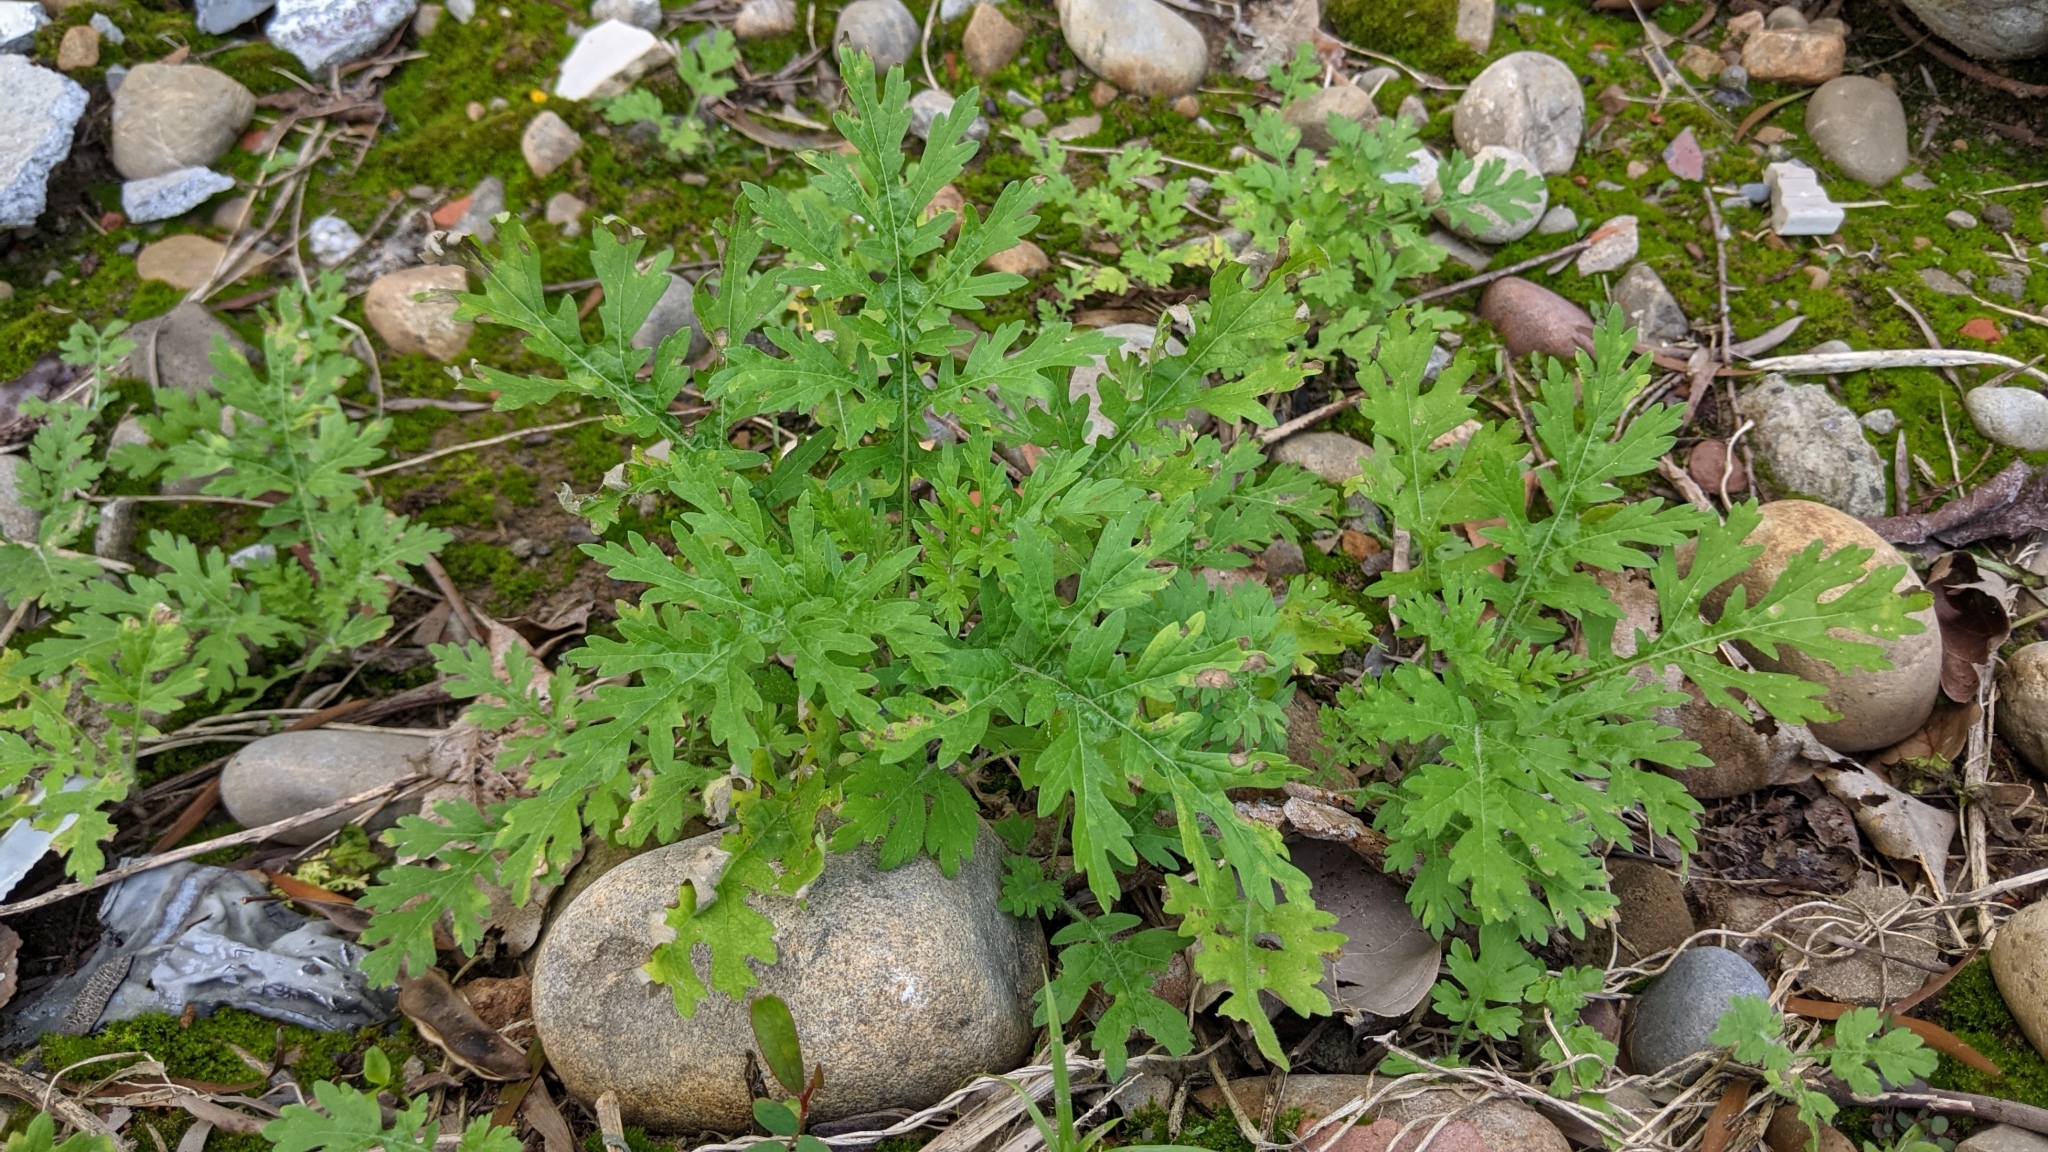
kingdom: Plantae
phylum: Tracheophyta
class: Magnoliopsida
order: Asterales
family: Asteraceae
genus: Parthenium
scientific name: Parthenium hysterophorus
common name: Santa maria feverfew
